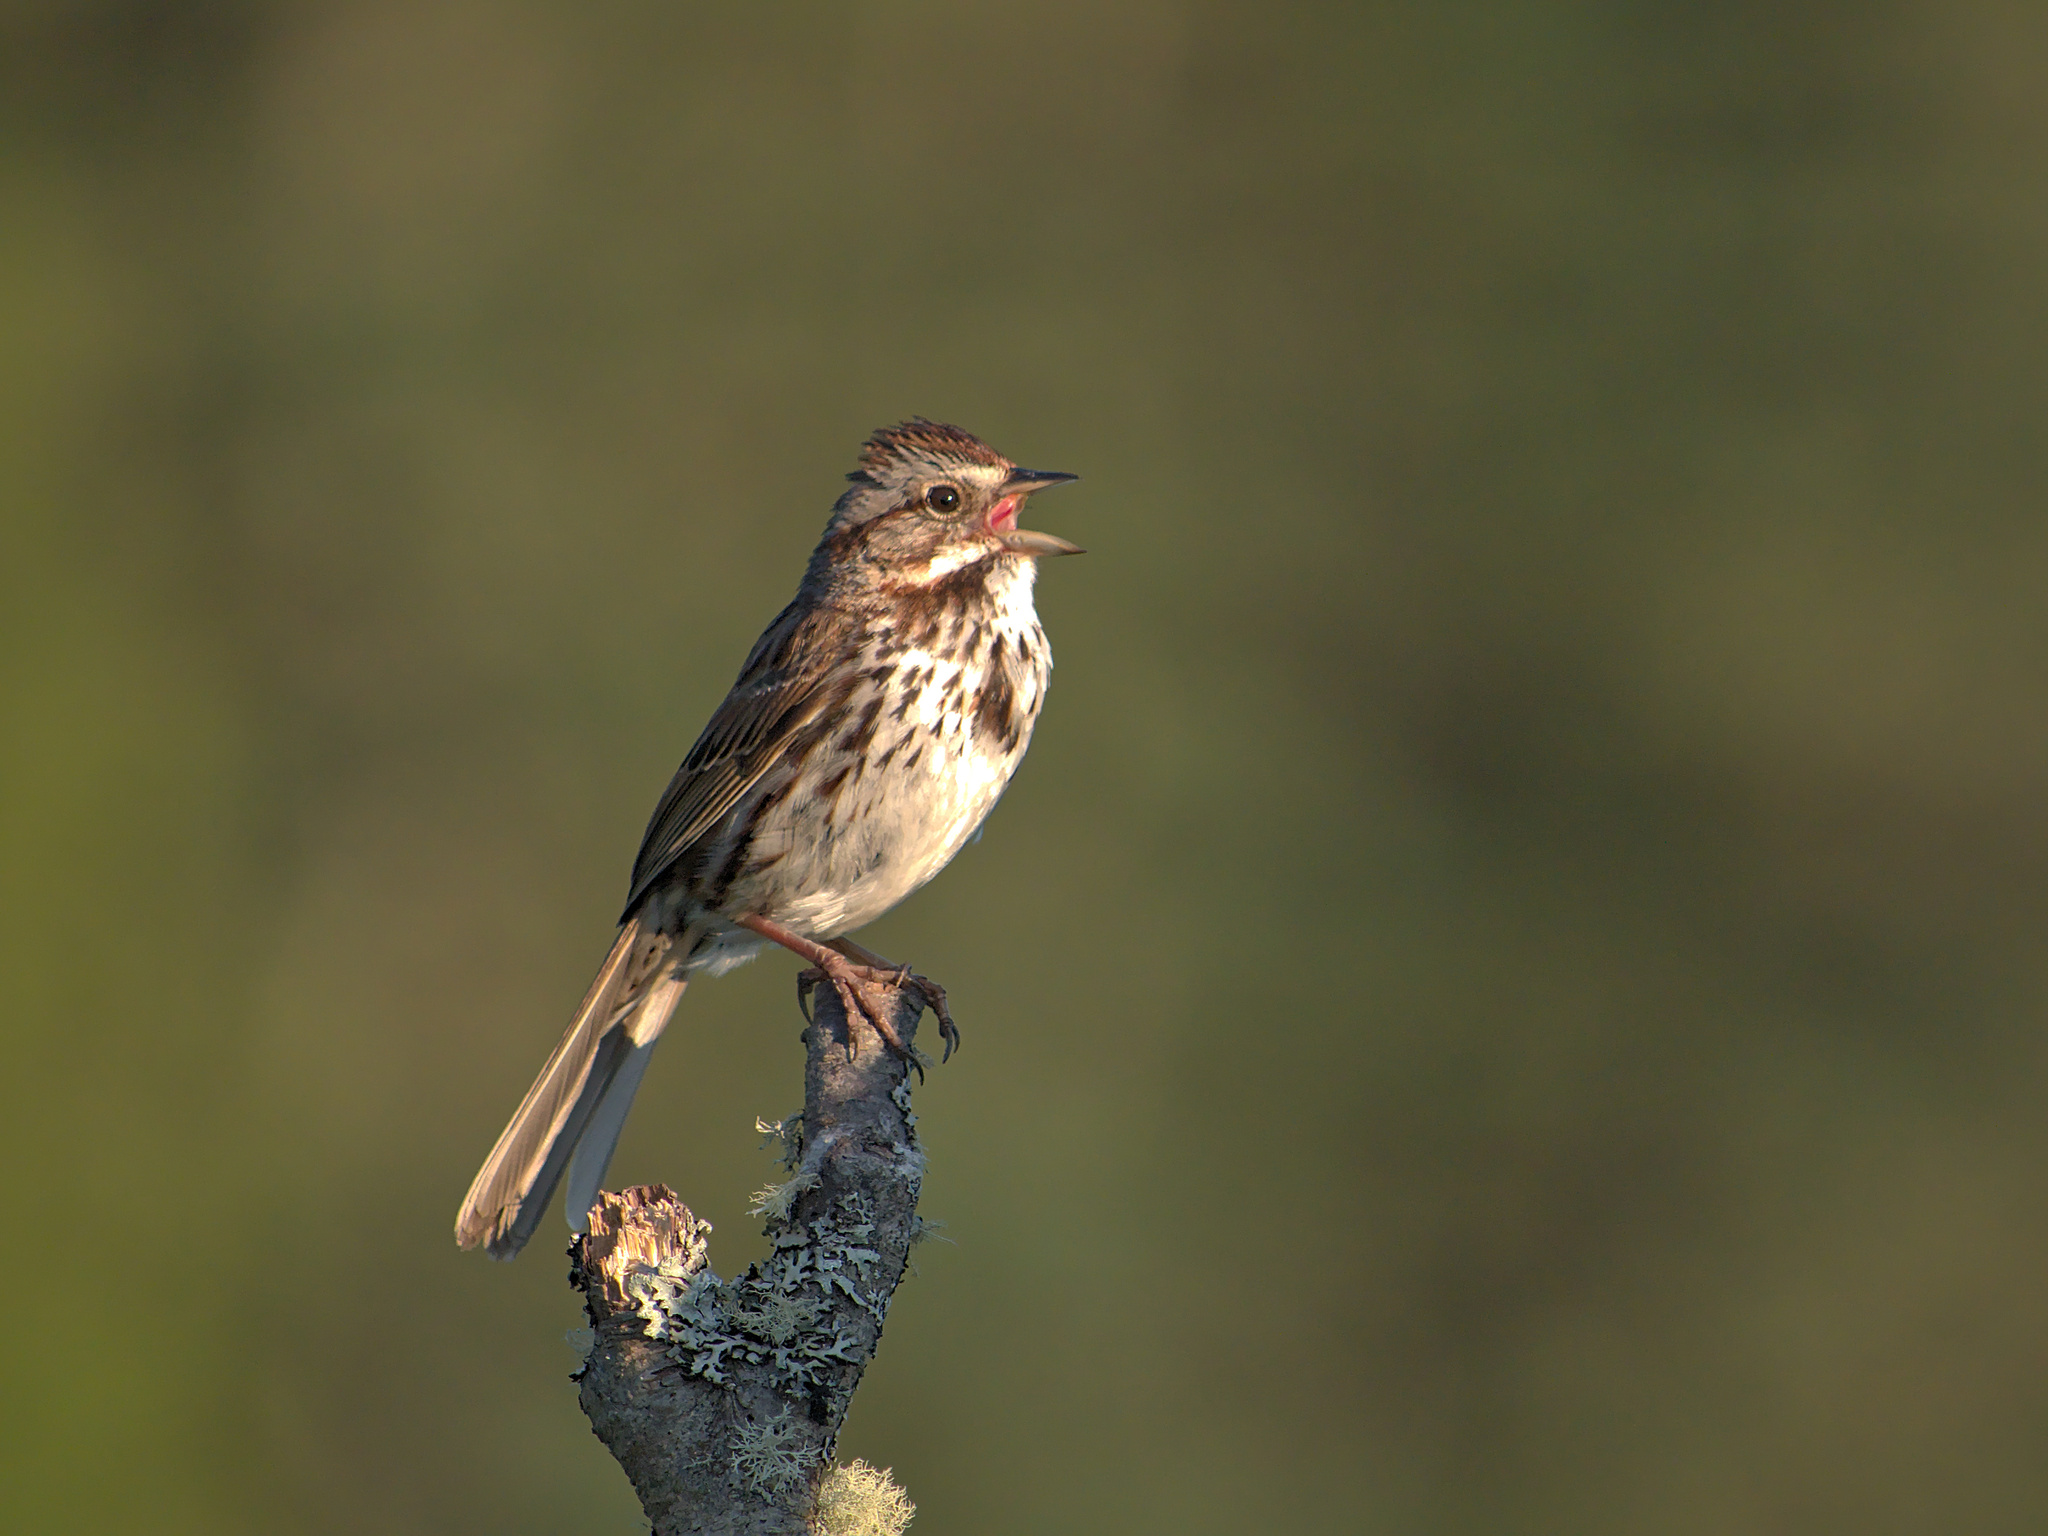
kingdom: Animalia
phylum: Chordata
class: Aves
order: Passeriformes
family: Passerellidae
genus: Melospiza
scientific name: Melospiza melodia
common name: Song sparrow
